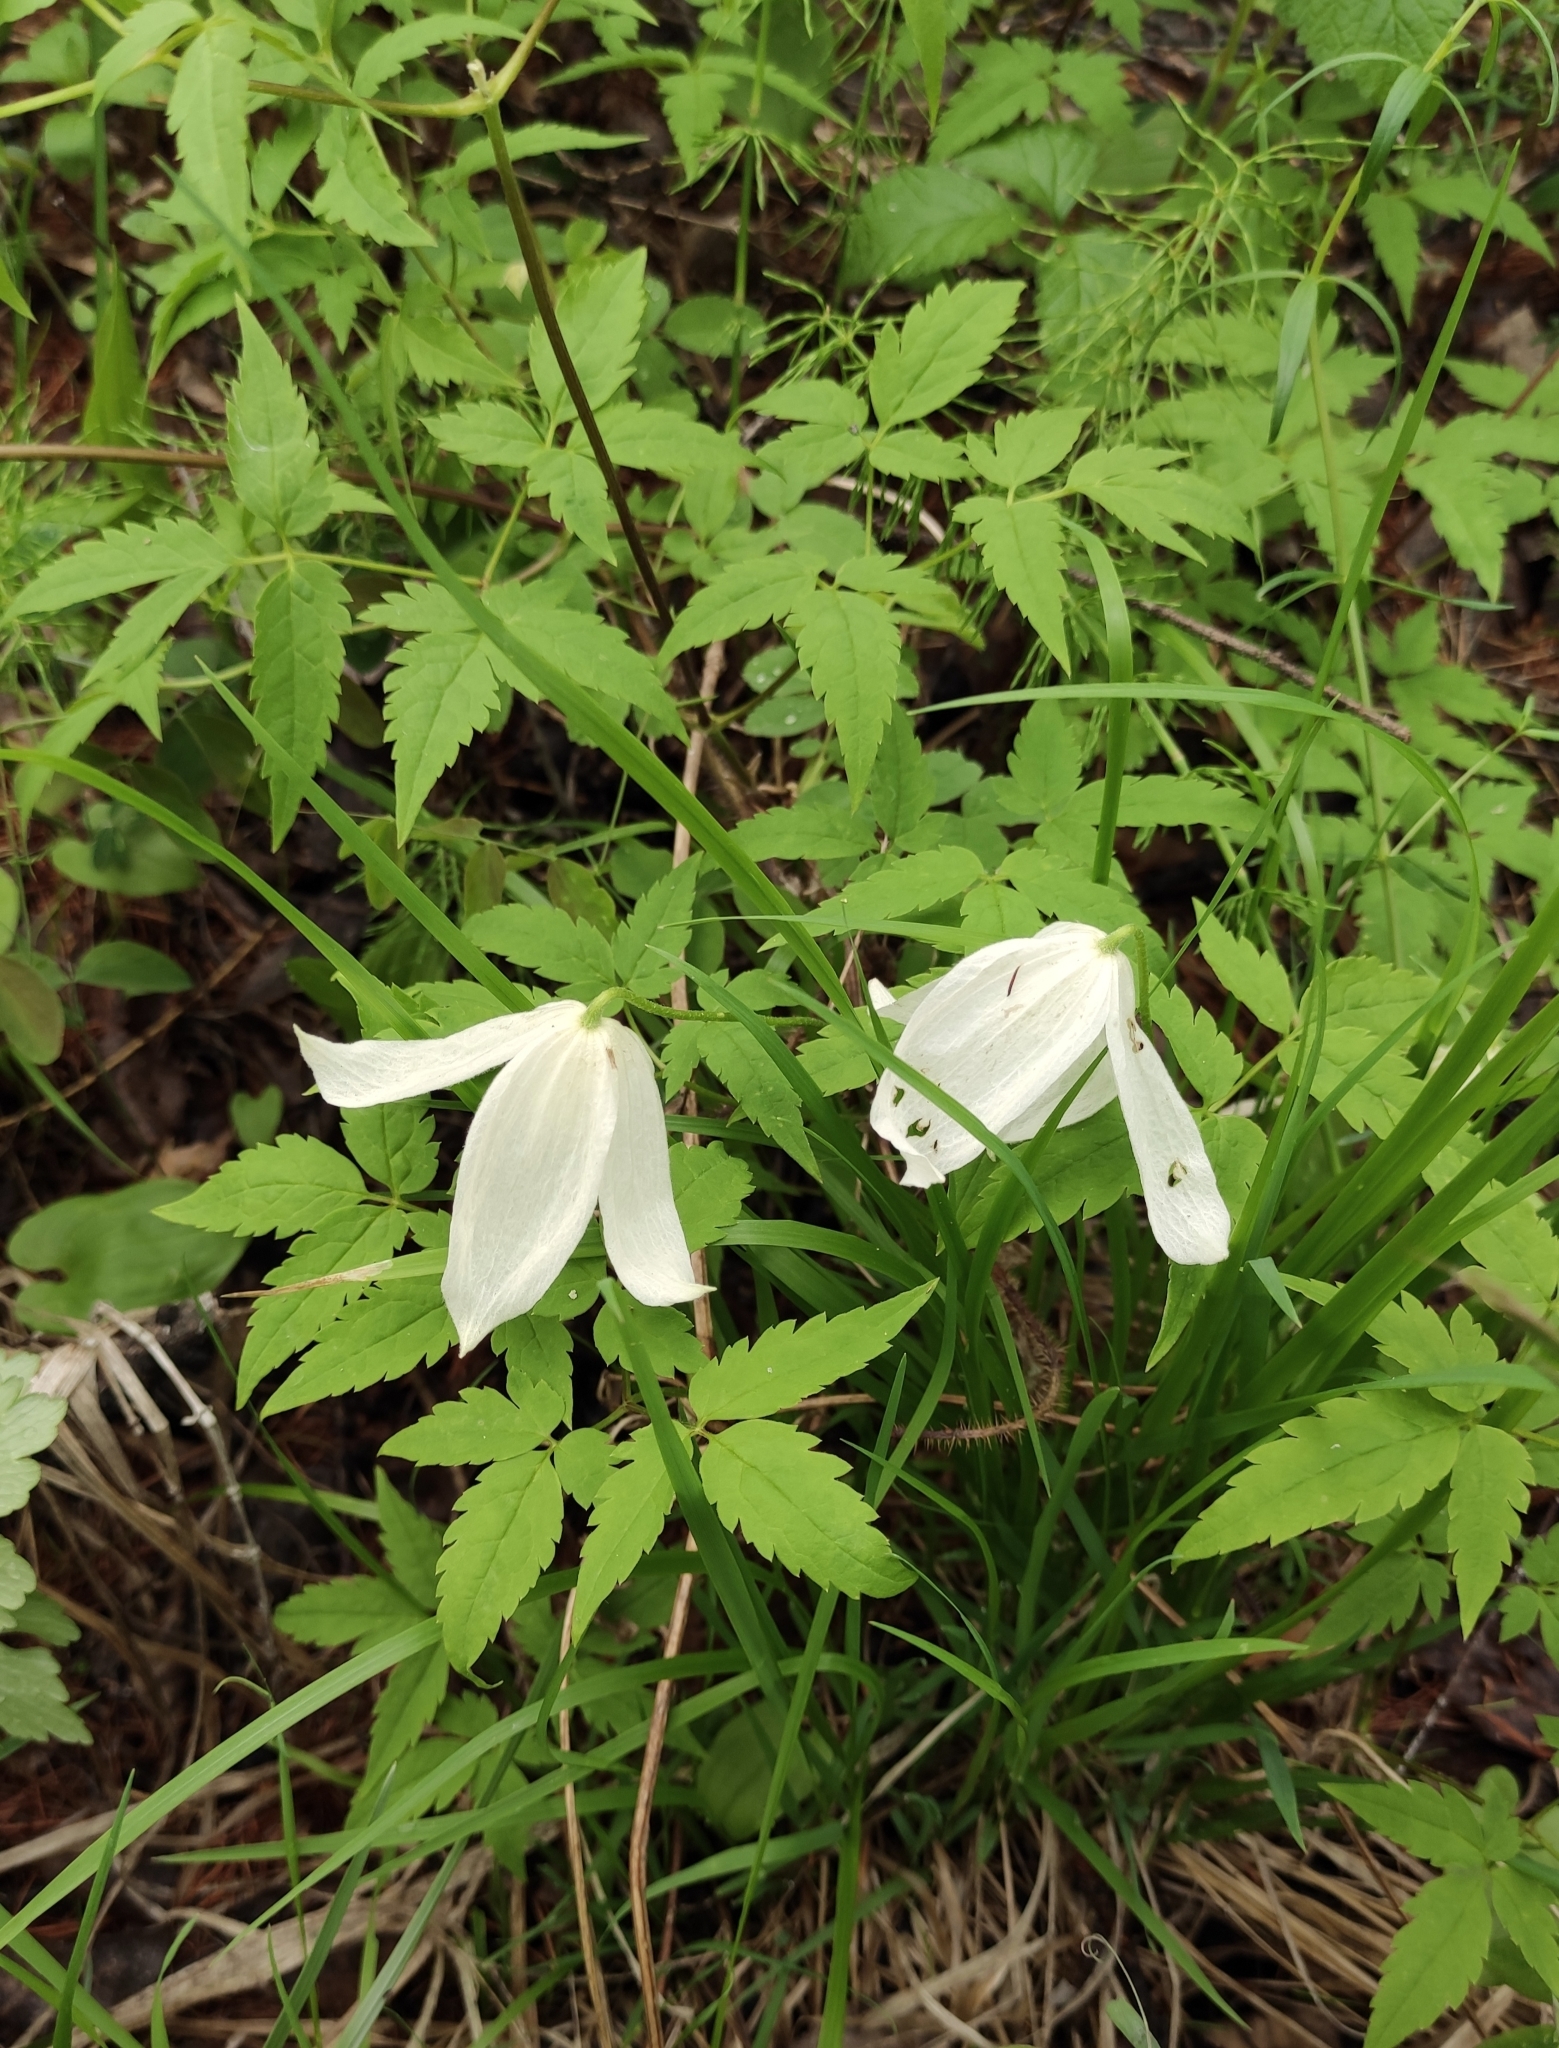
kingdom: Plantae
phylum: Tracheophyta
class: Magnoliopsida
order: Ranunculales
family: Ranunculaceae
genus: Clematis
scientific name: Clematis sibirica
